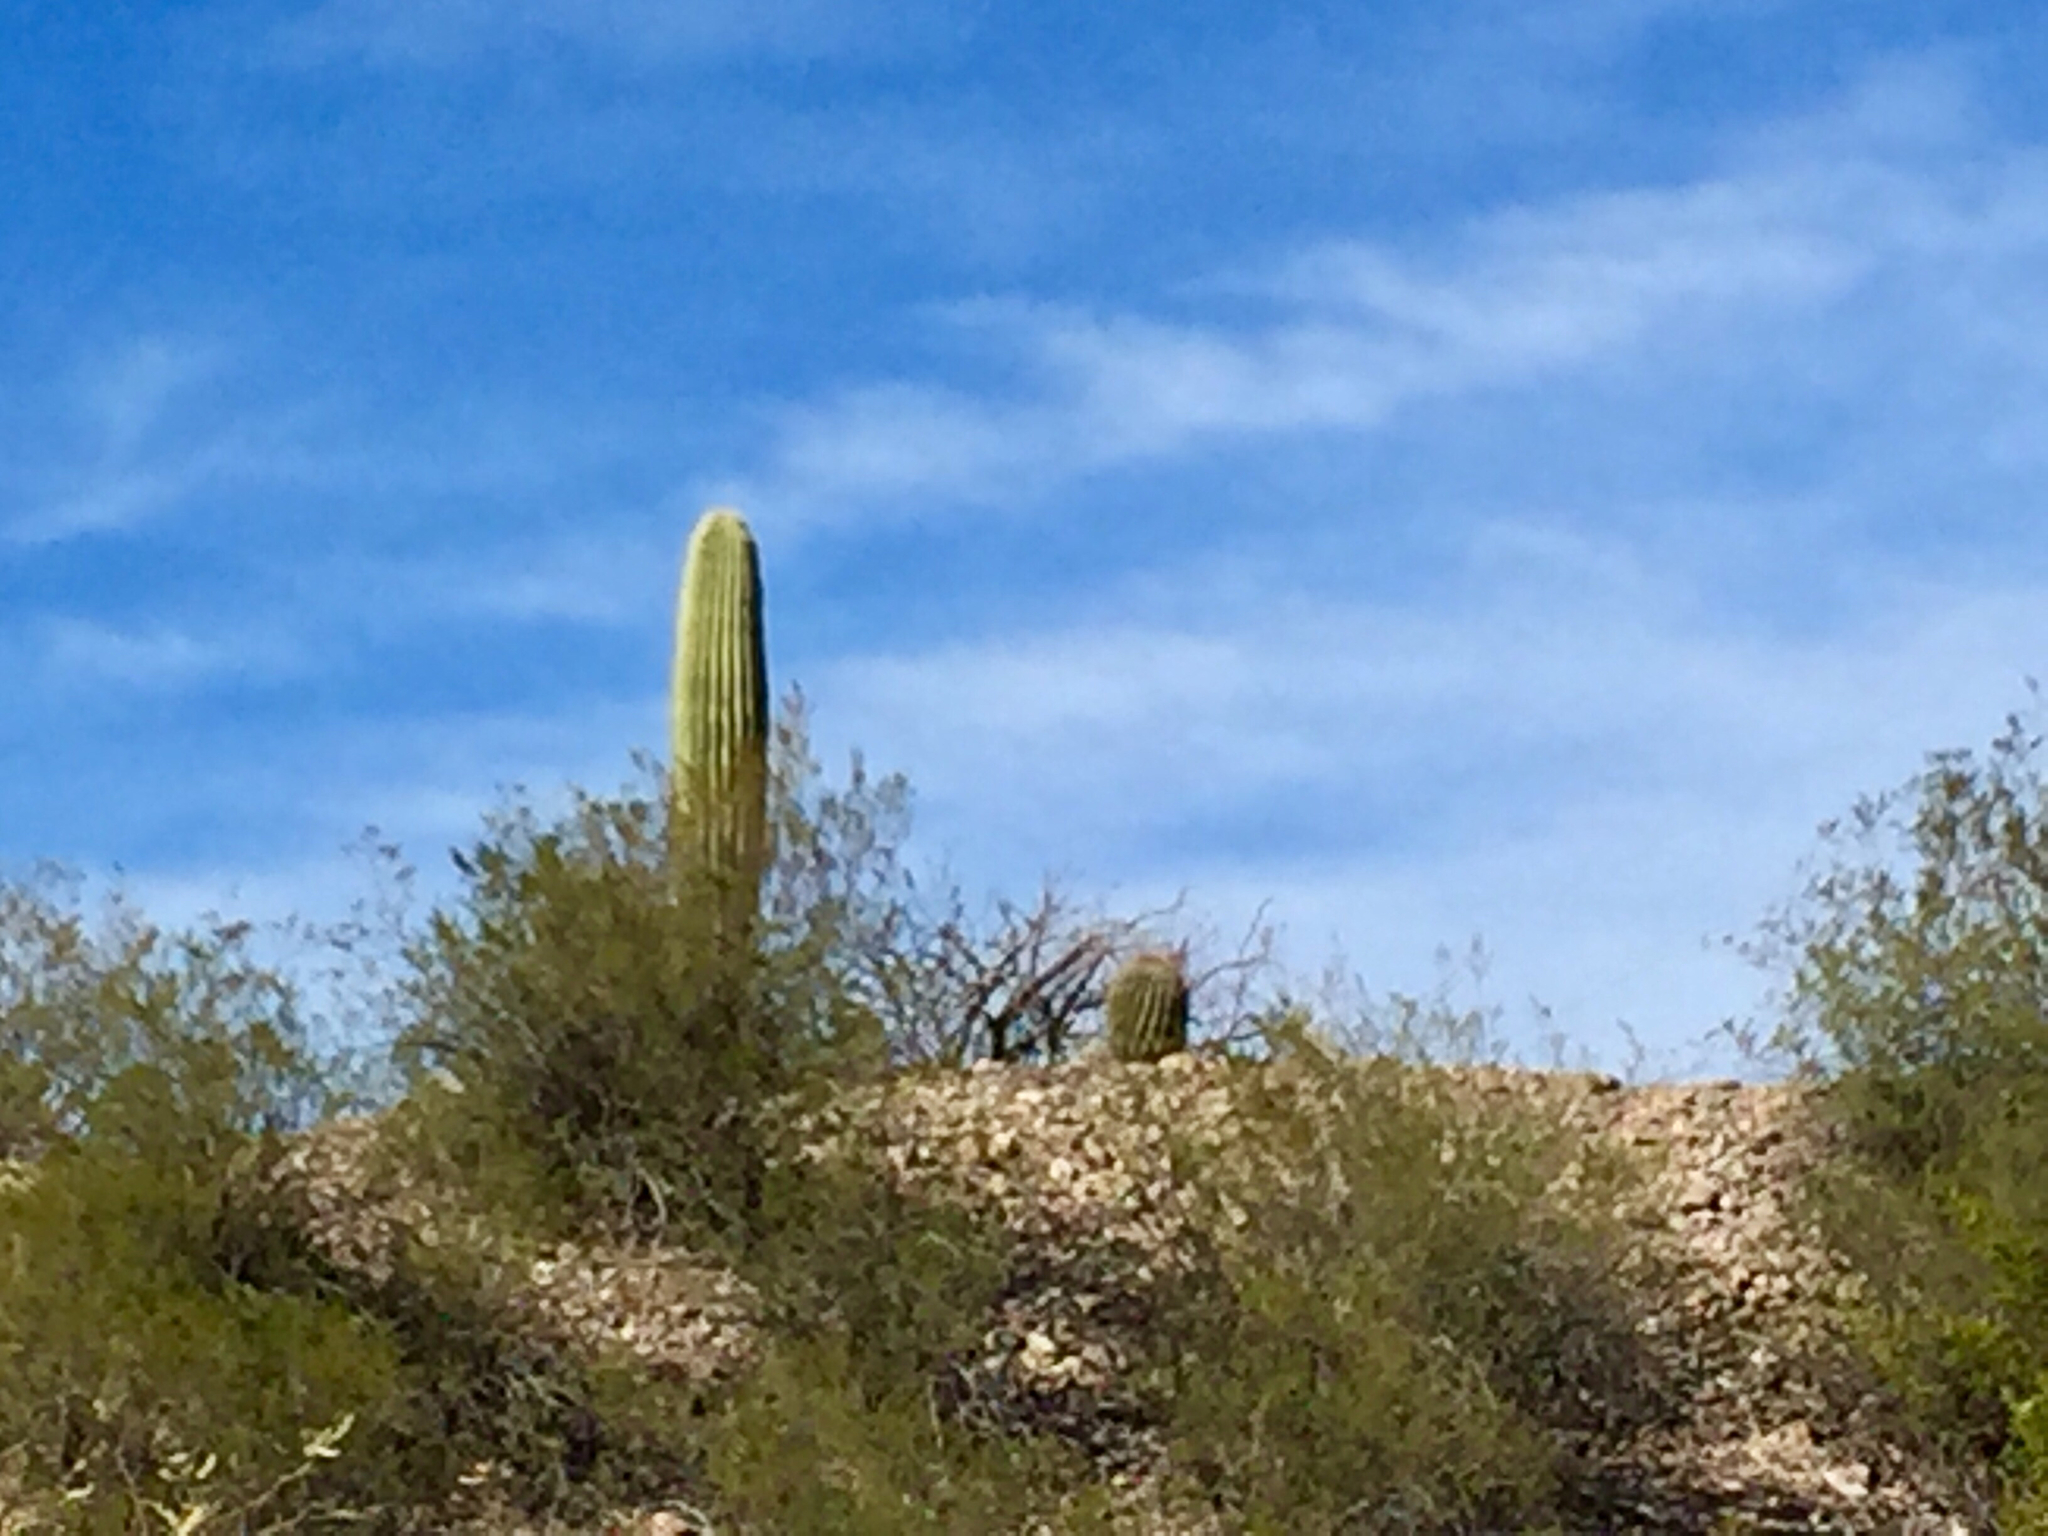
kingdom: Plantae
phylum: Tracheophyta
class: Magnoliopsida
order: Caryophyllales
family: Cactaceae
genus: Carnegiea
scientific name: Carnegiea gigantea
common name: Saguaro
